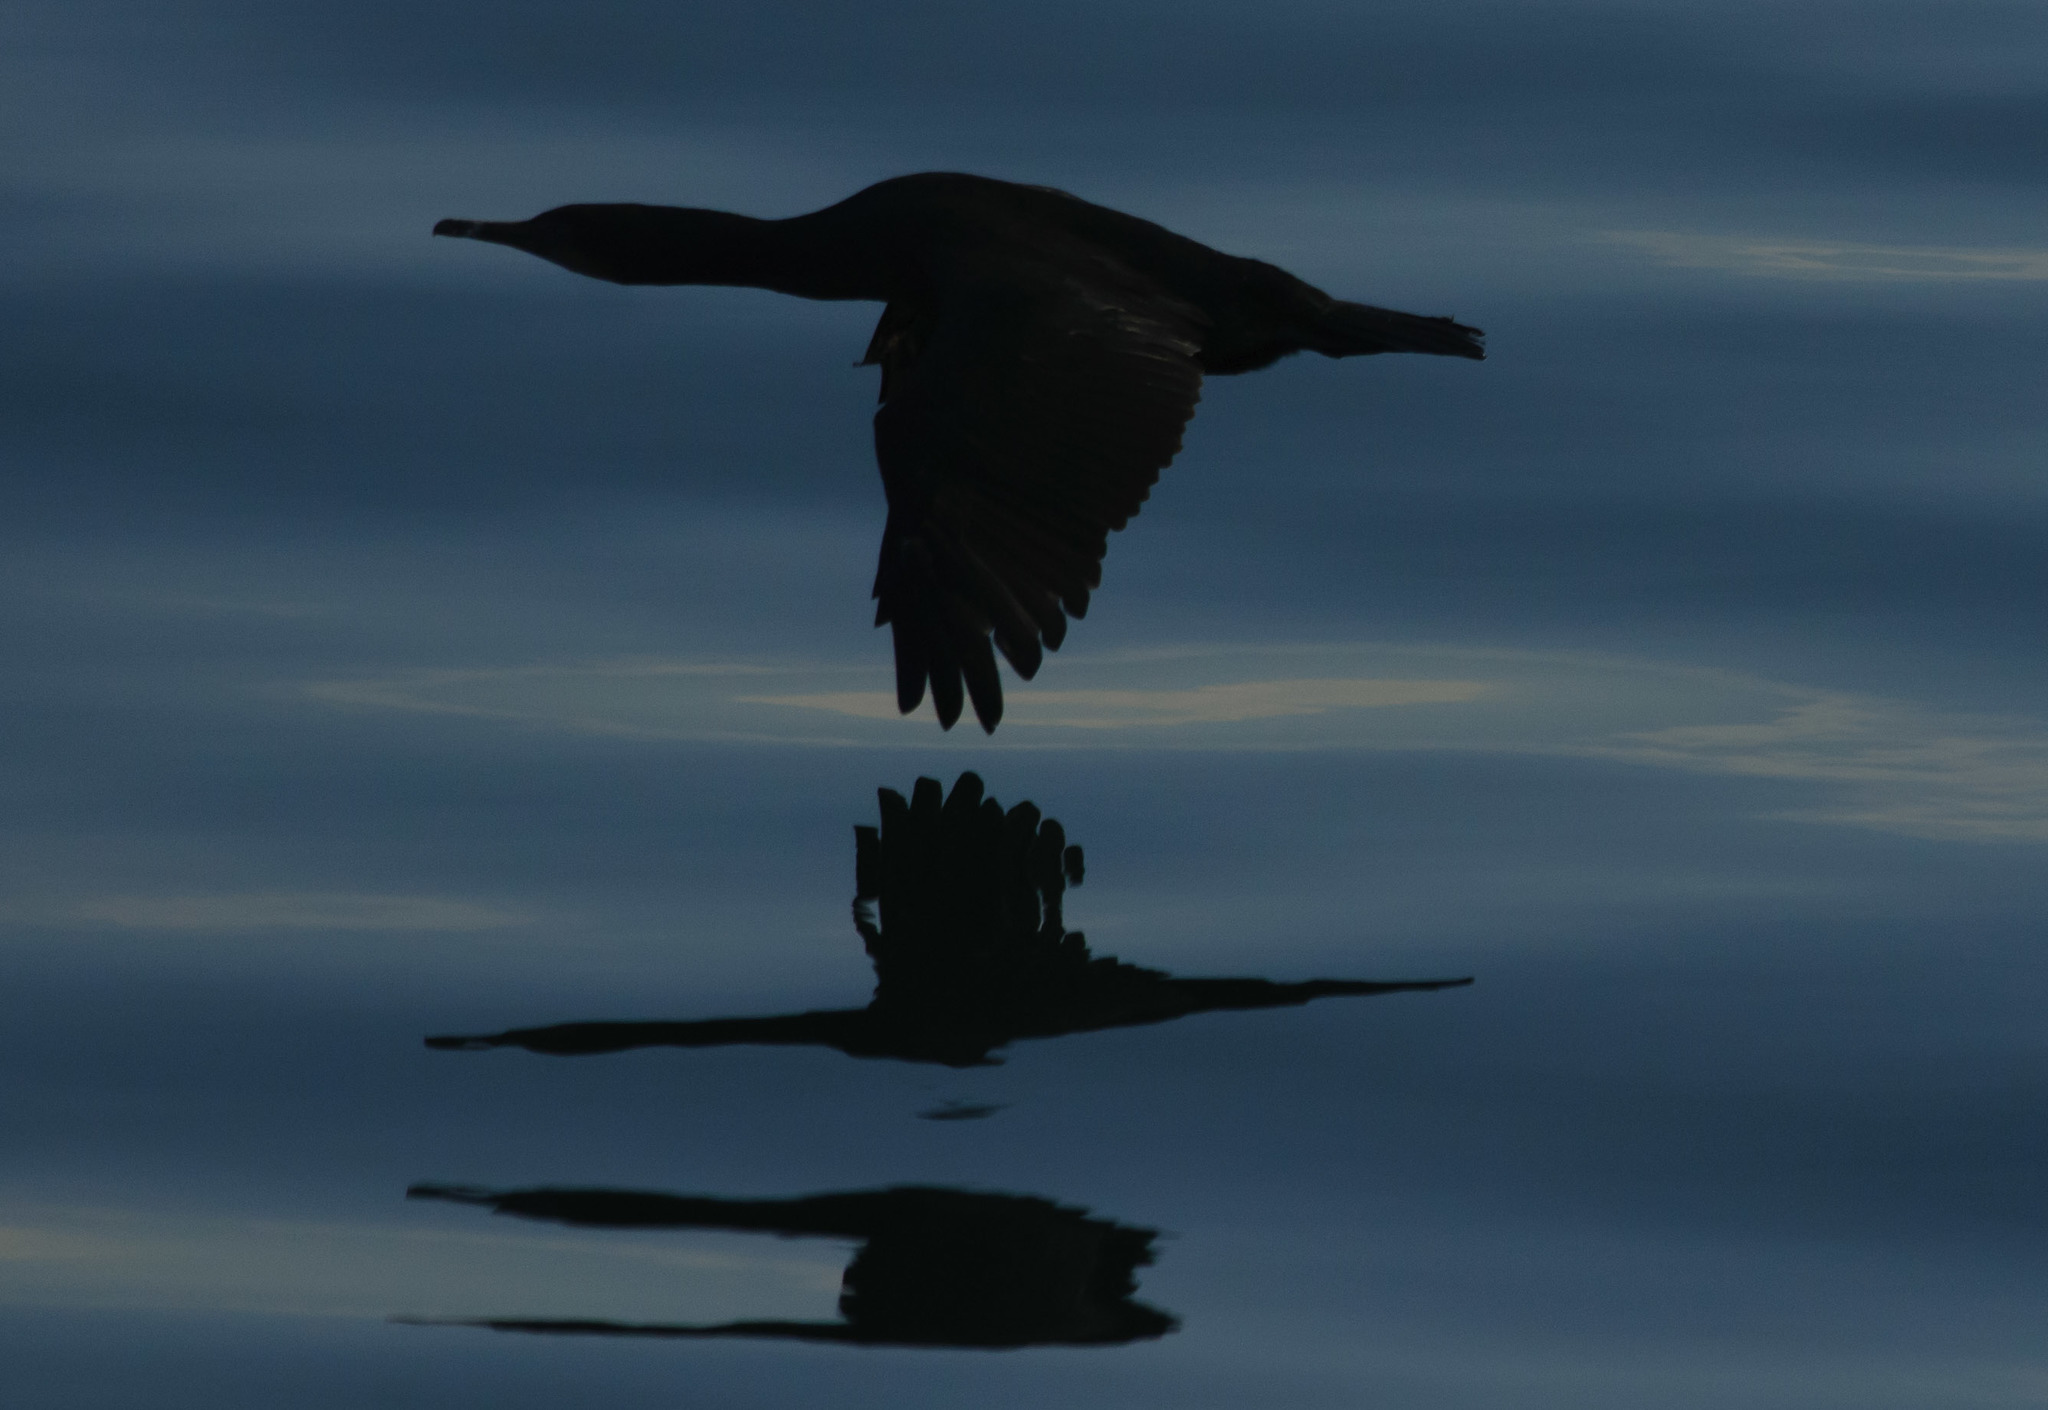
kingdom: Animalia
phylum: Chordata
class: Aves
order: Suliformes
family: Phalacrocoracidae
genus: Phalacrocorax
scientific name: Phalacrocorax auritus
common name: Double-crested cormorant
